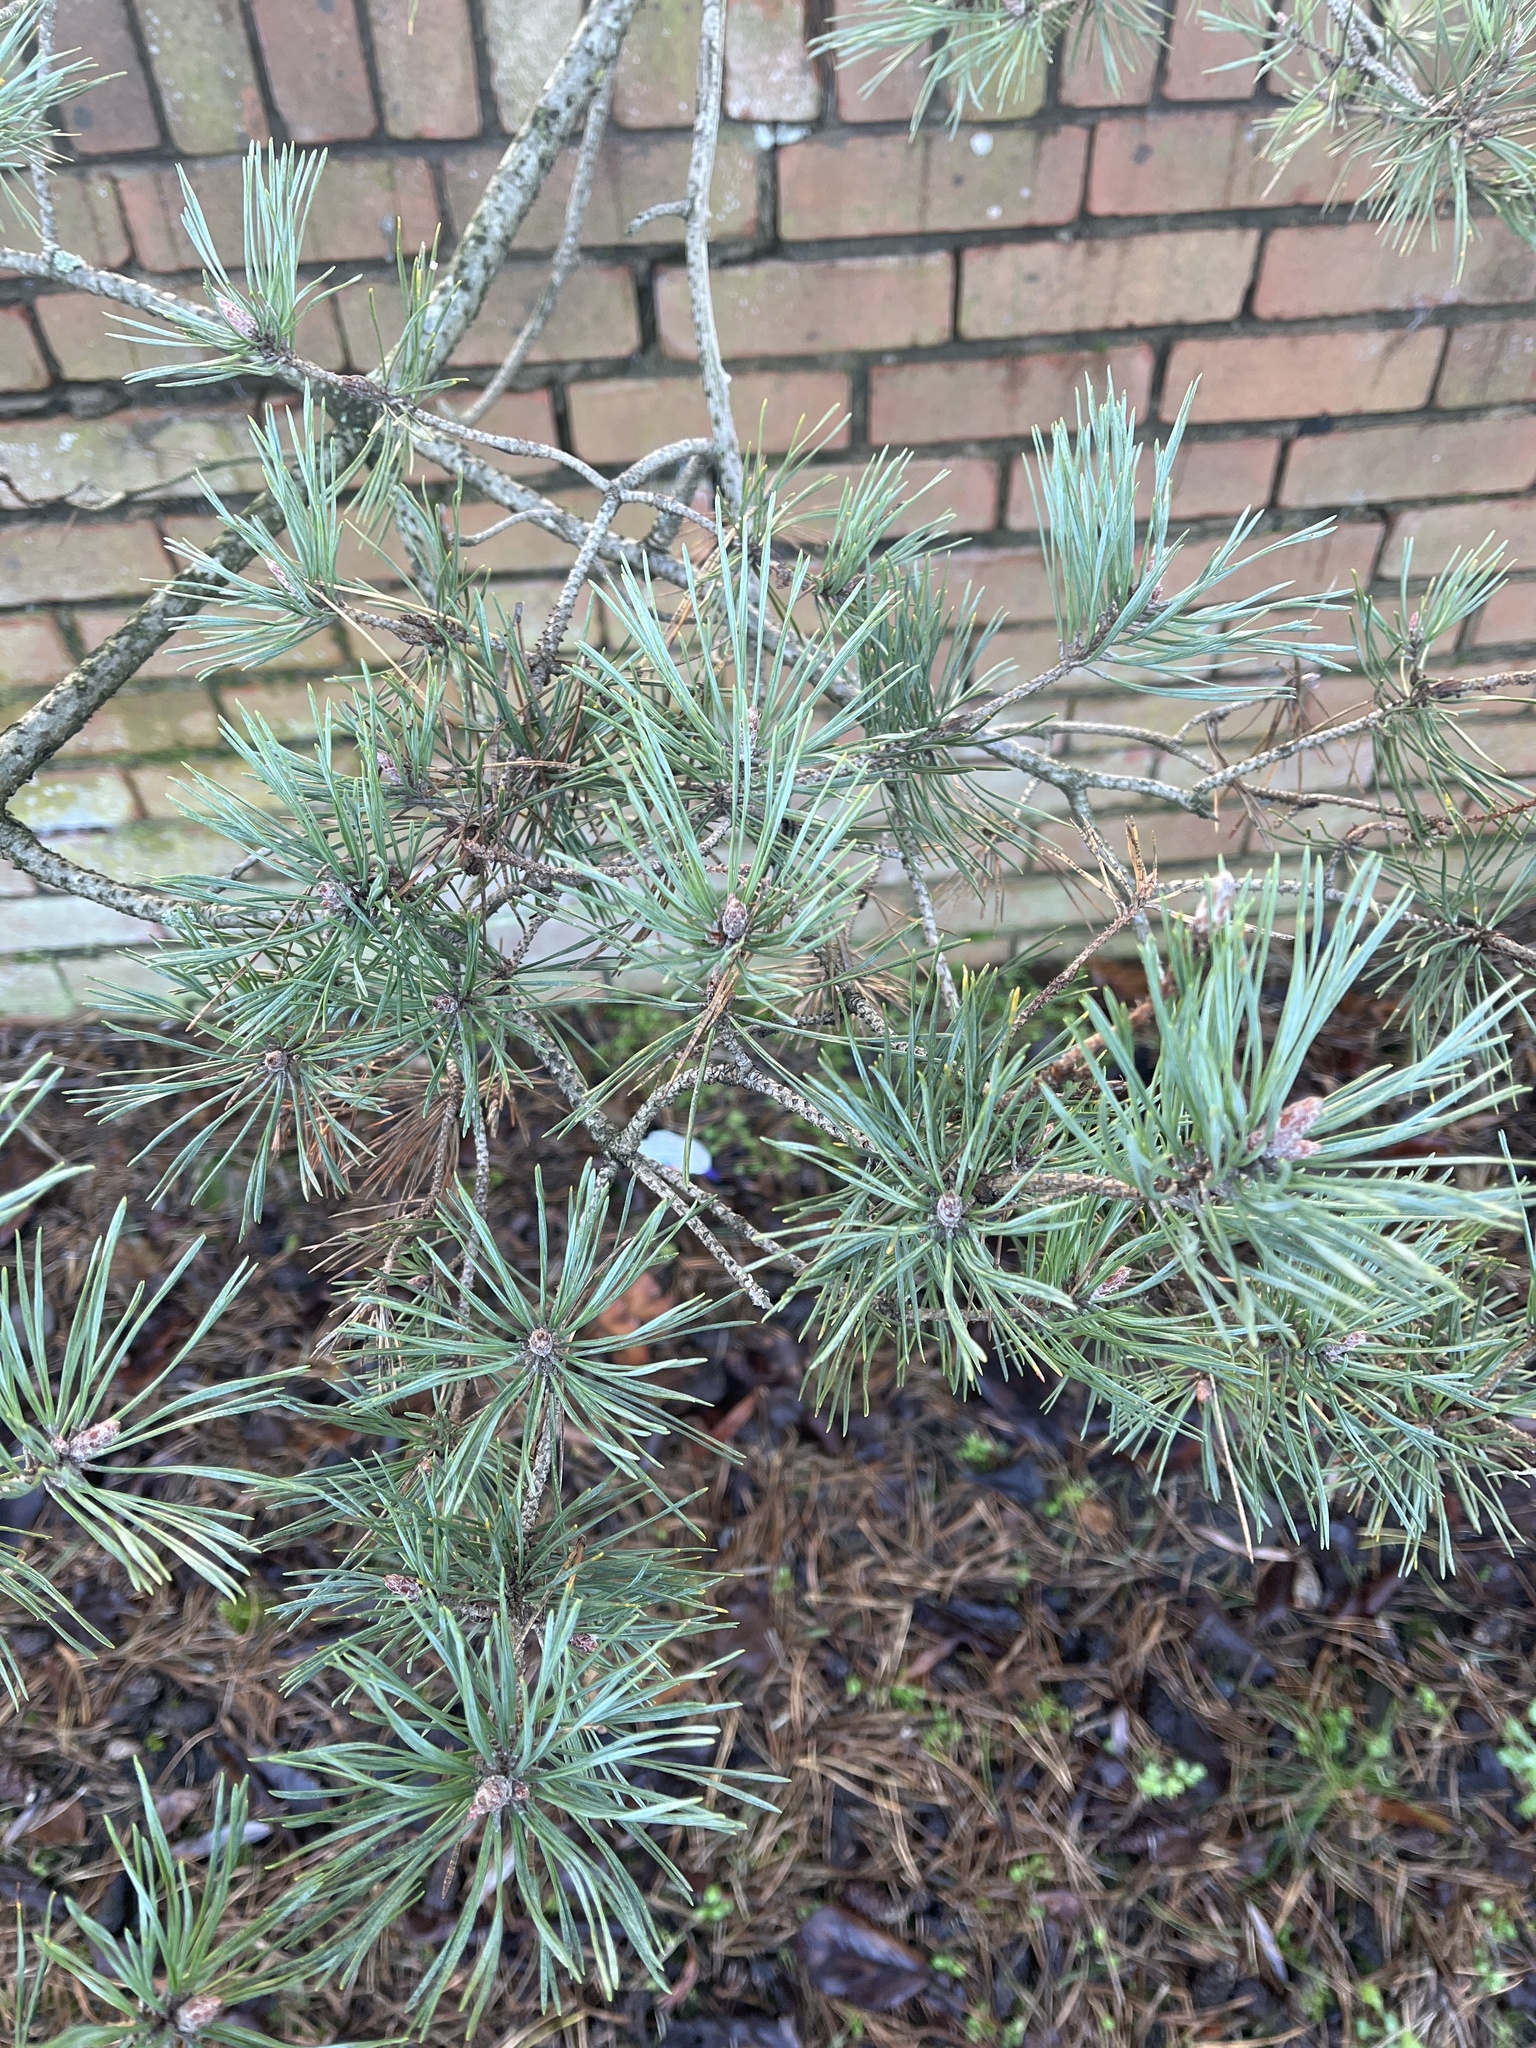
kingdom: Plantae
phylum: Tracheophyta
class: Pinopsida
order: Pinales
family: Pinaceae
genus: Pinus
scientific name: Pinus sylvestris
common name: Scots pine
